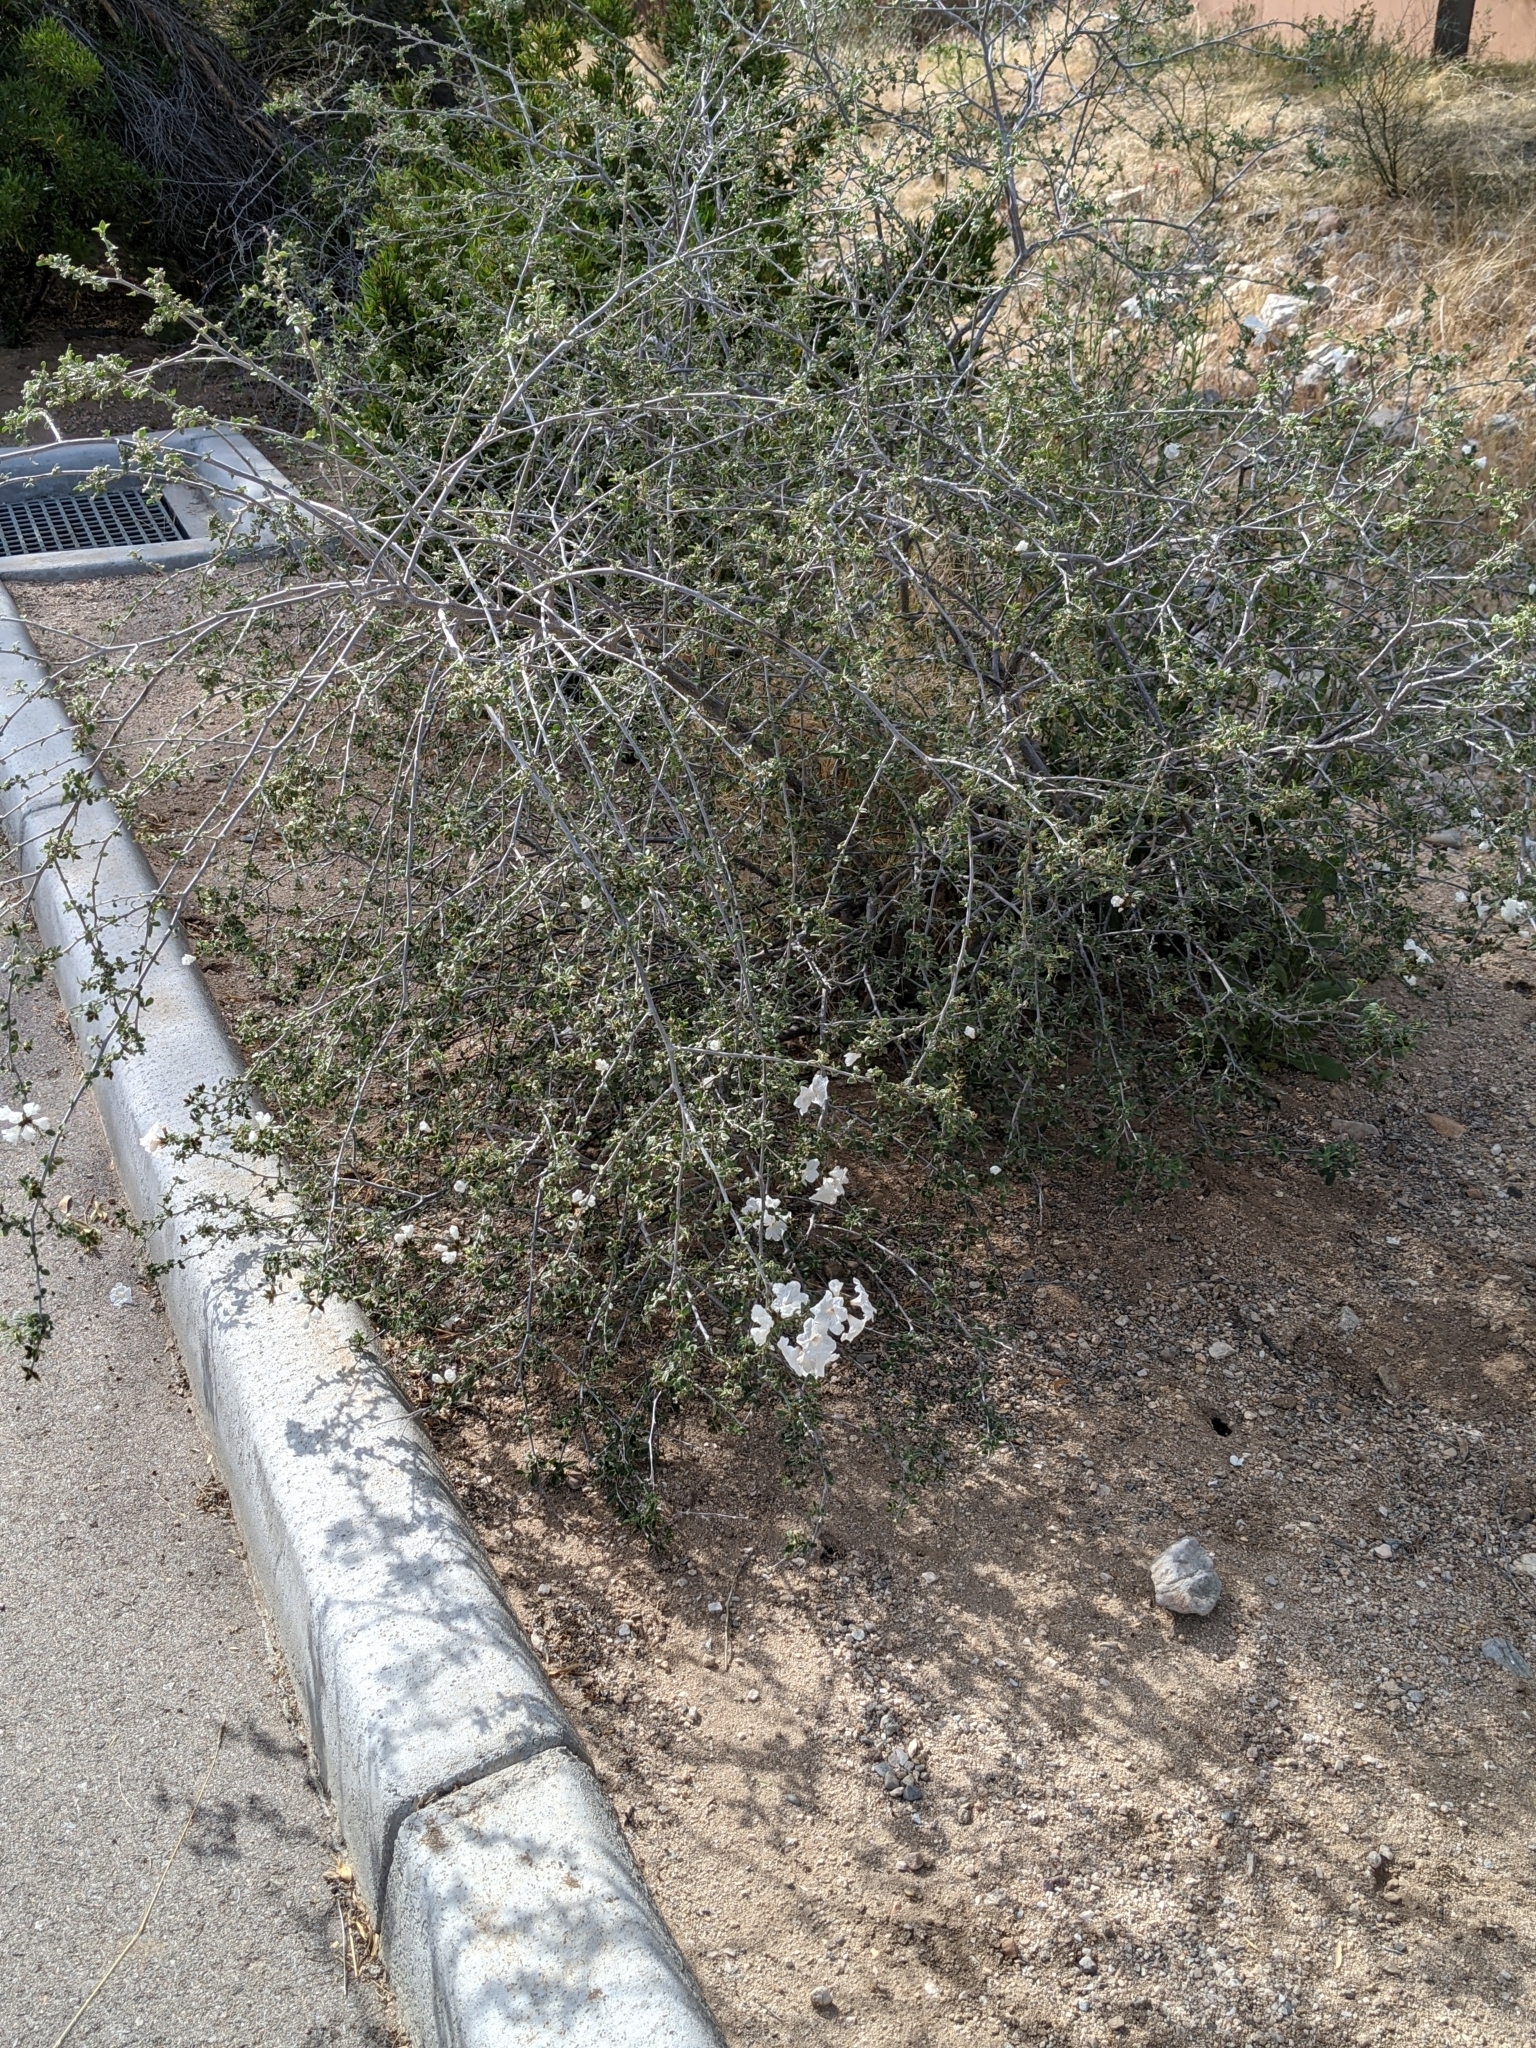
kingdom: Plantae
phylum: Tracheophyta
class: Magnoliopsida
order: Boraginales
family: Cordiaceae
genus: Cordia
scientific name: Cordia parvifolia
